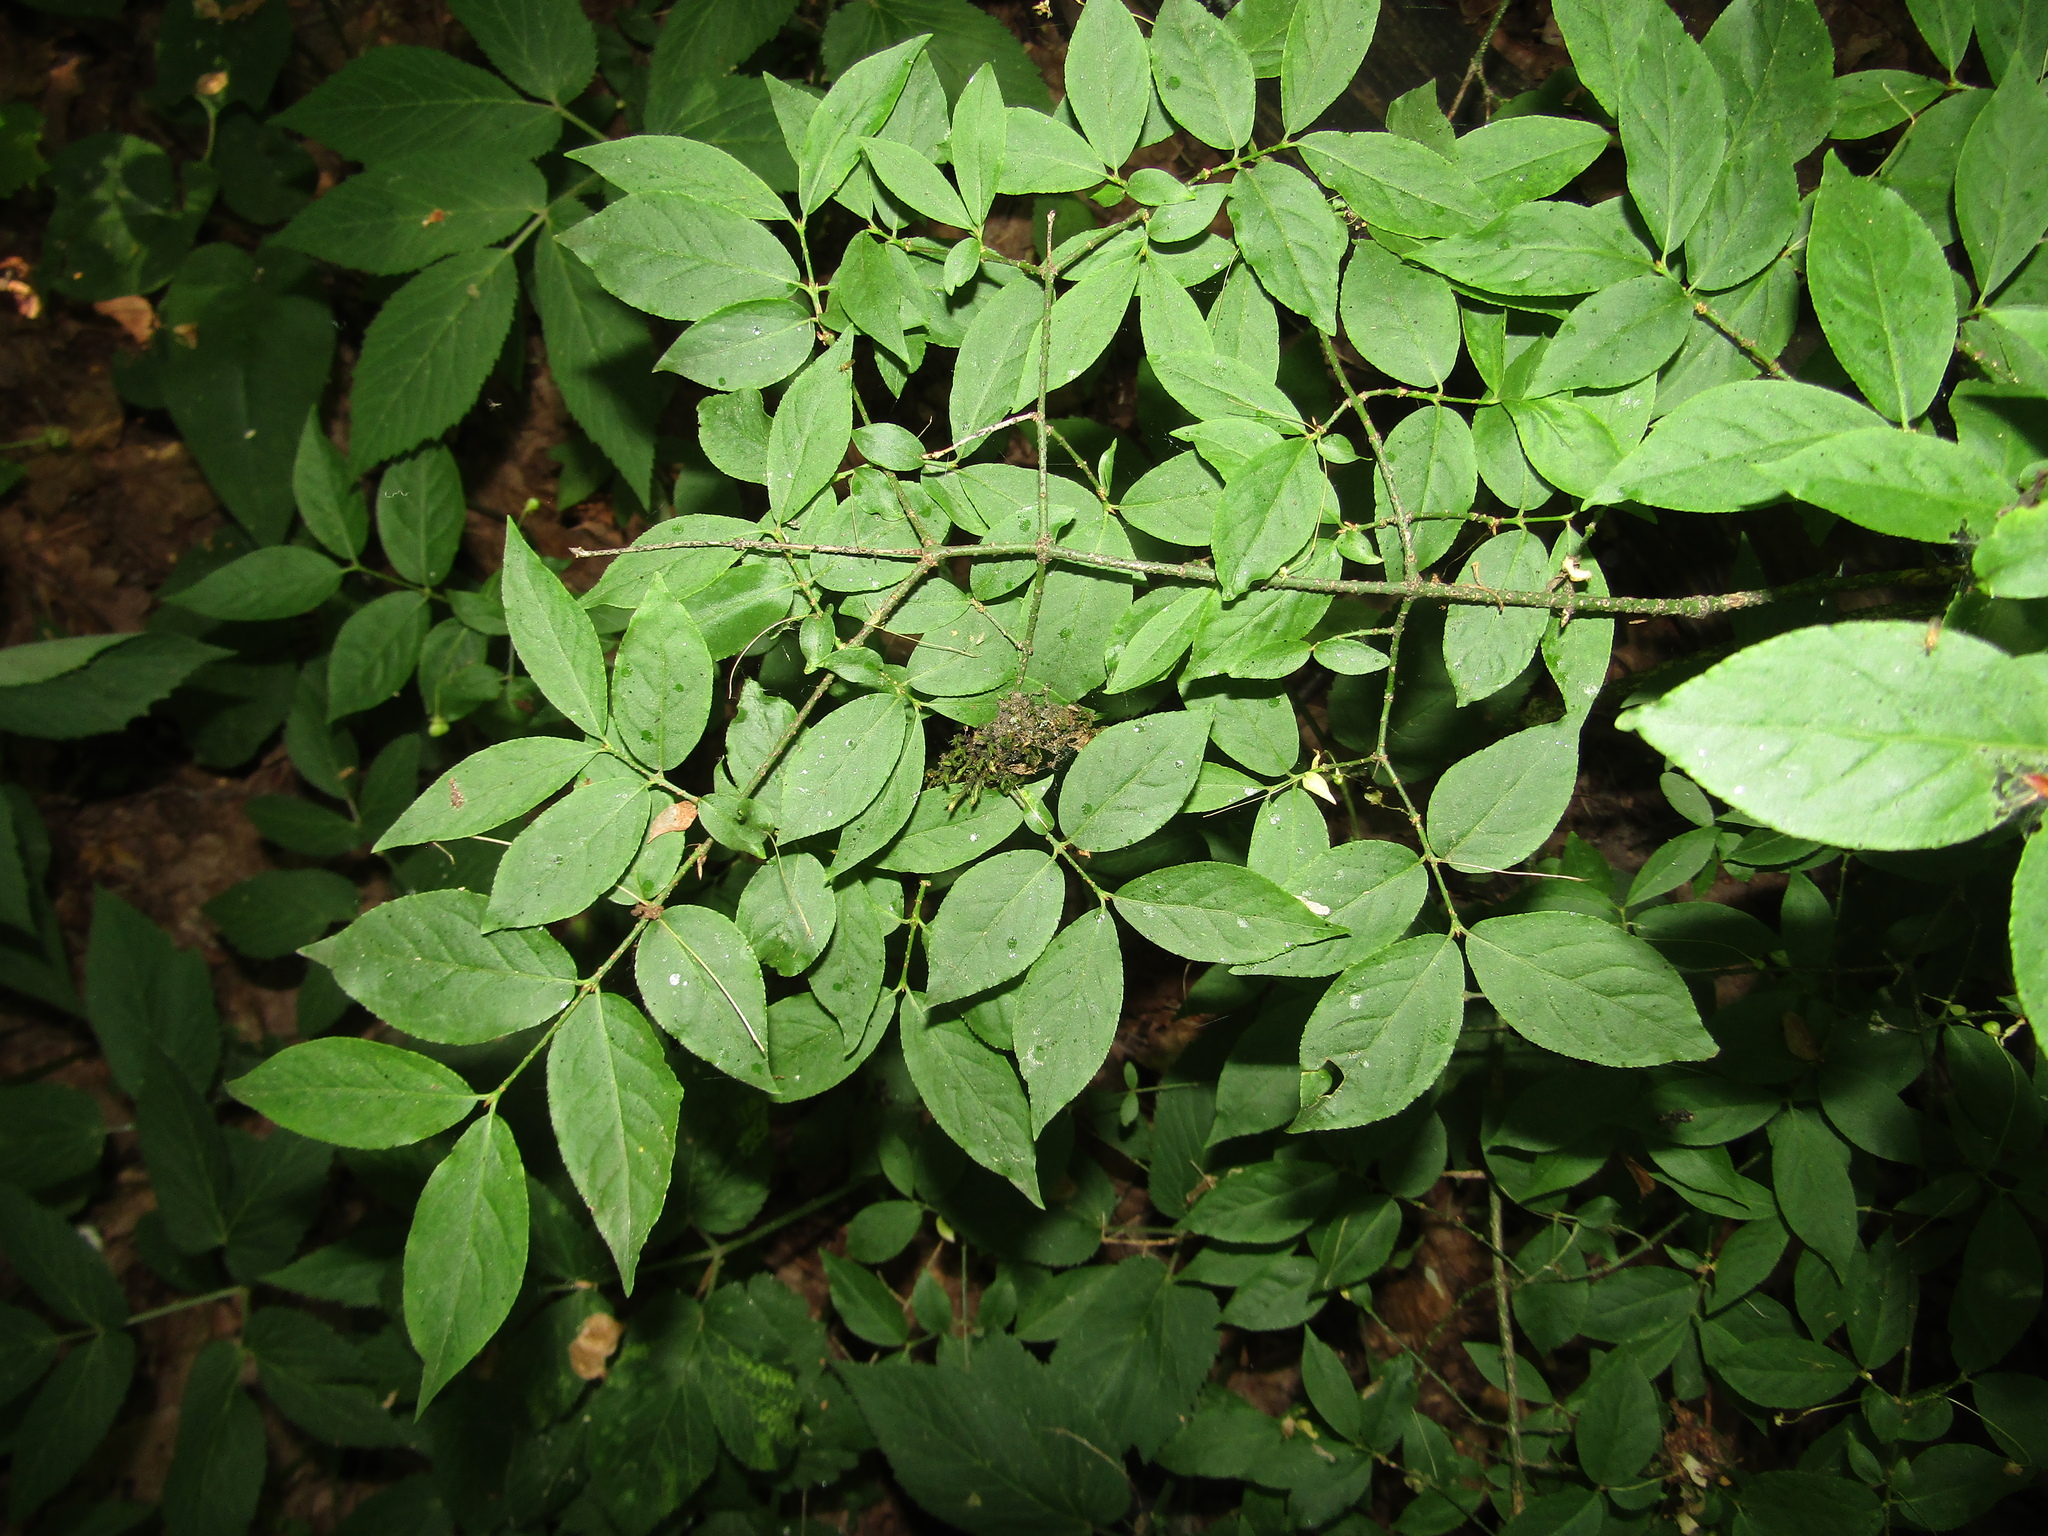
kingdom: Plantae
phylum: Tracheophyta
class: Magnoliopsida
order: Celastrales
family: Celastraceae
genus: Euonymus
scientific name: Euonymus verrucosus
